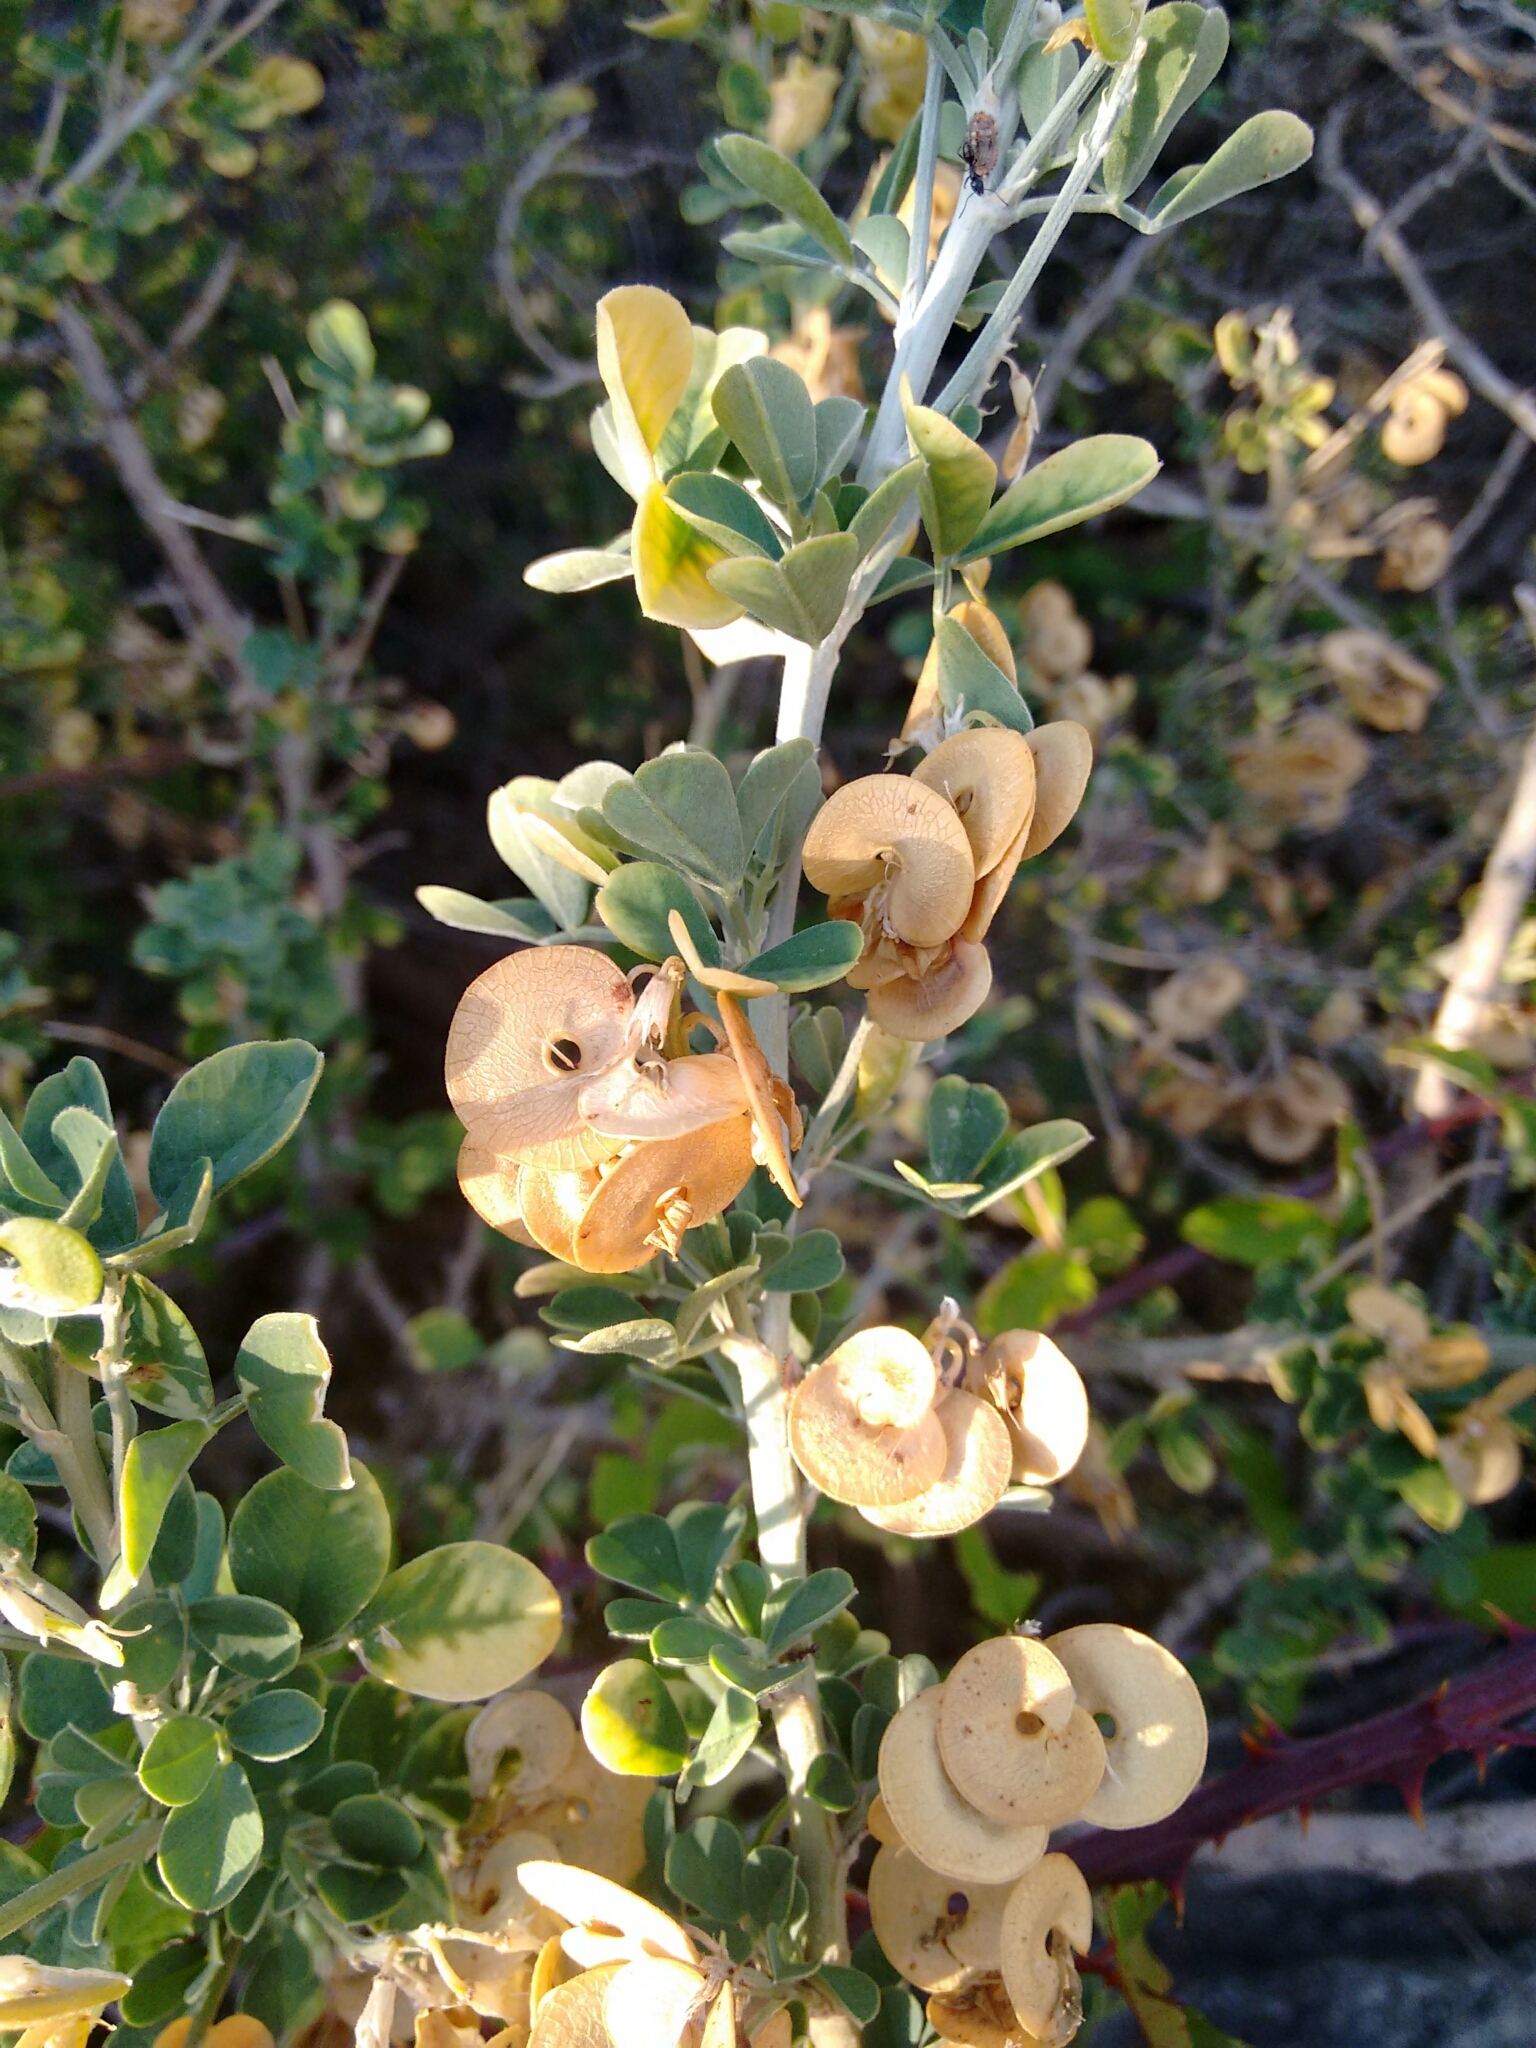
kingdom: Plantae
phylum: Tracheophyta
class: Magnoliopsida
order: Fabales
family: Fabaceae
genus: Medicago
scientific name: Medicago arborea
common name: Moon trefoil
